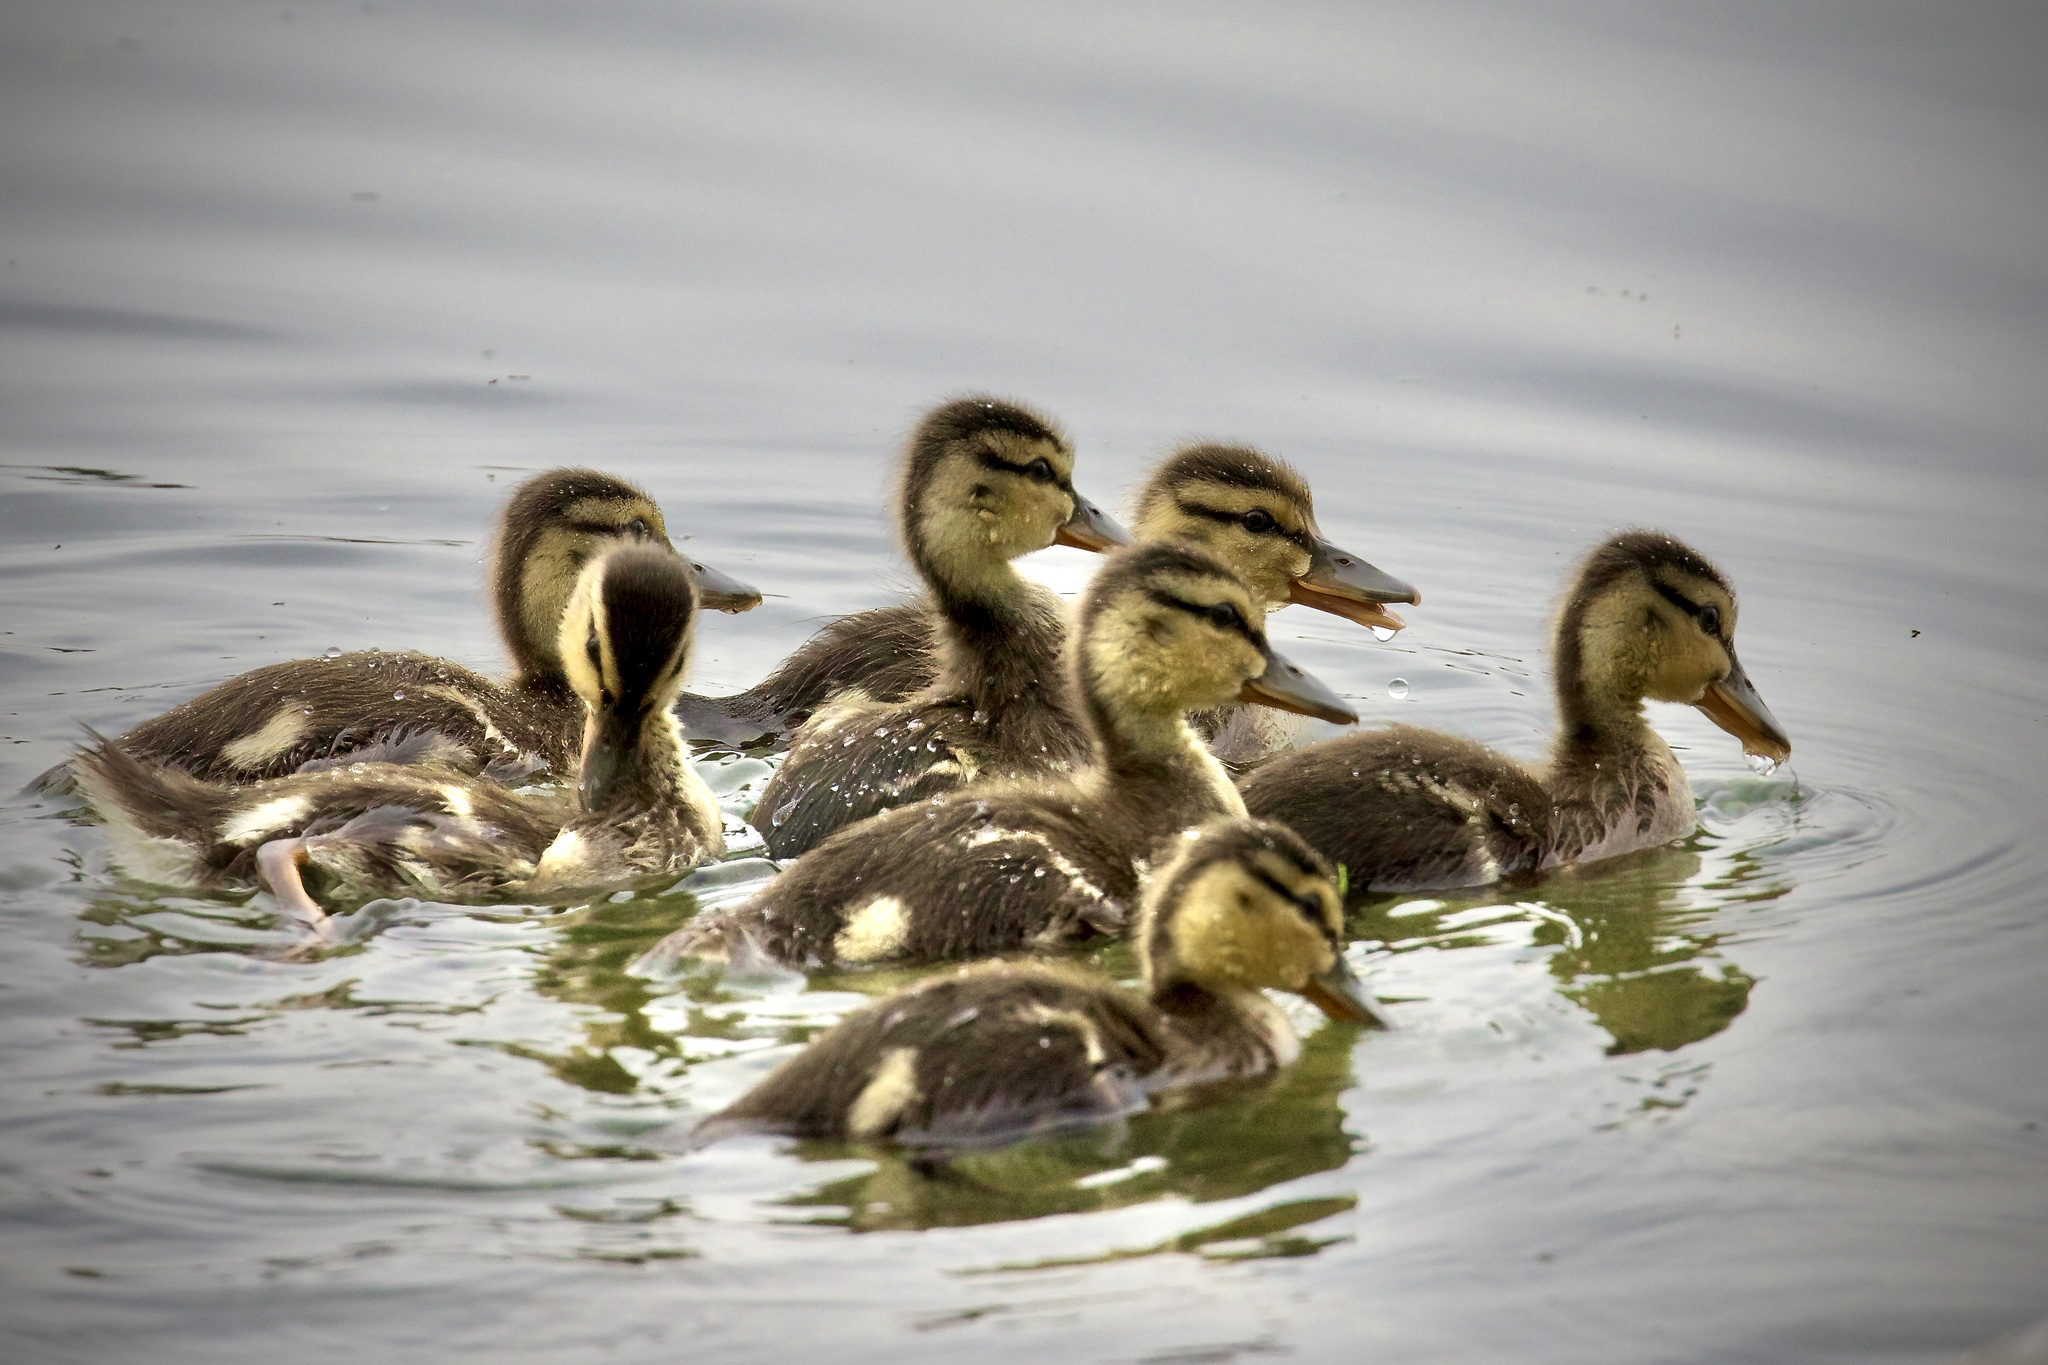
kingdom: Animalia
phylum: Chordata
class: Aves
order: Anseriformes
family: Anatidae
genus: Anas
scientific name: Anas platyrhynchos
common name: Mallard
